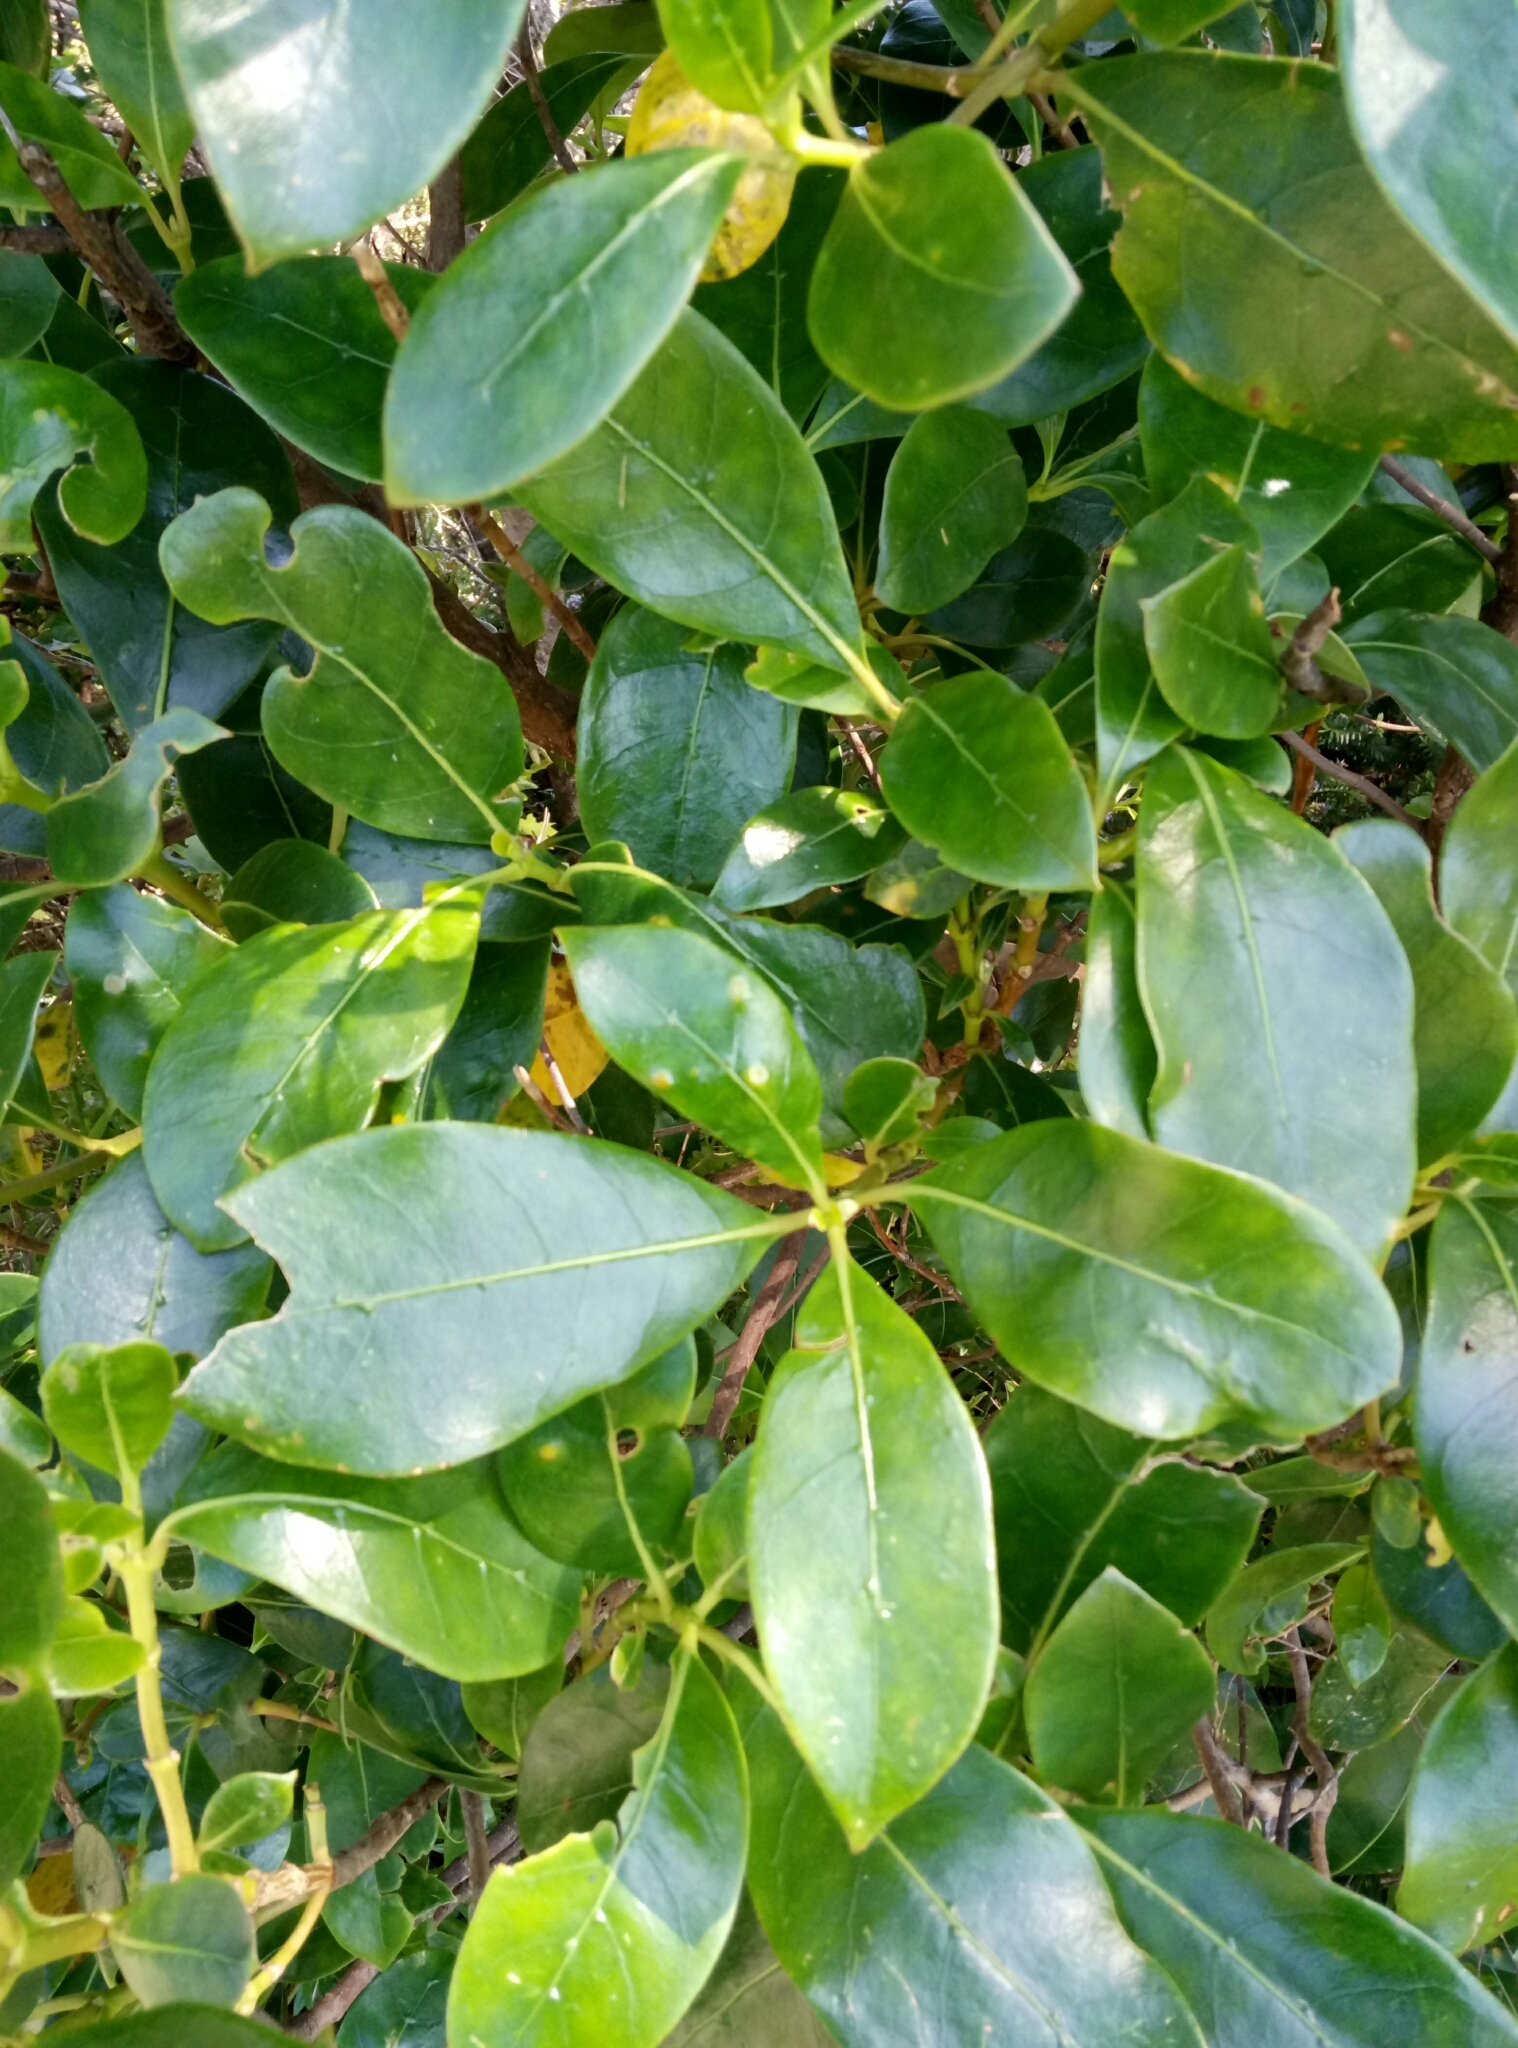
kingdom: Plantae
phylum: Tracheophyta
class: Magnoliopsida
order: Gentianales
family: Rubiaceae
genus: Coprosma
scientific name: Coprosma lucida
